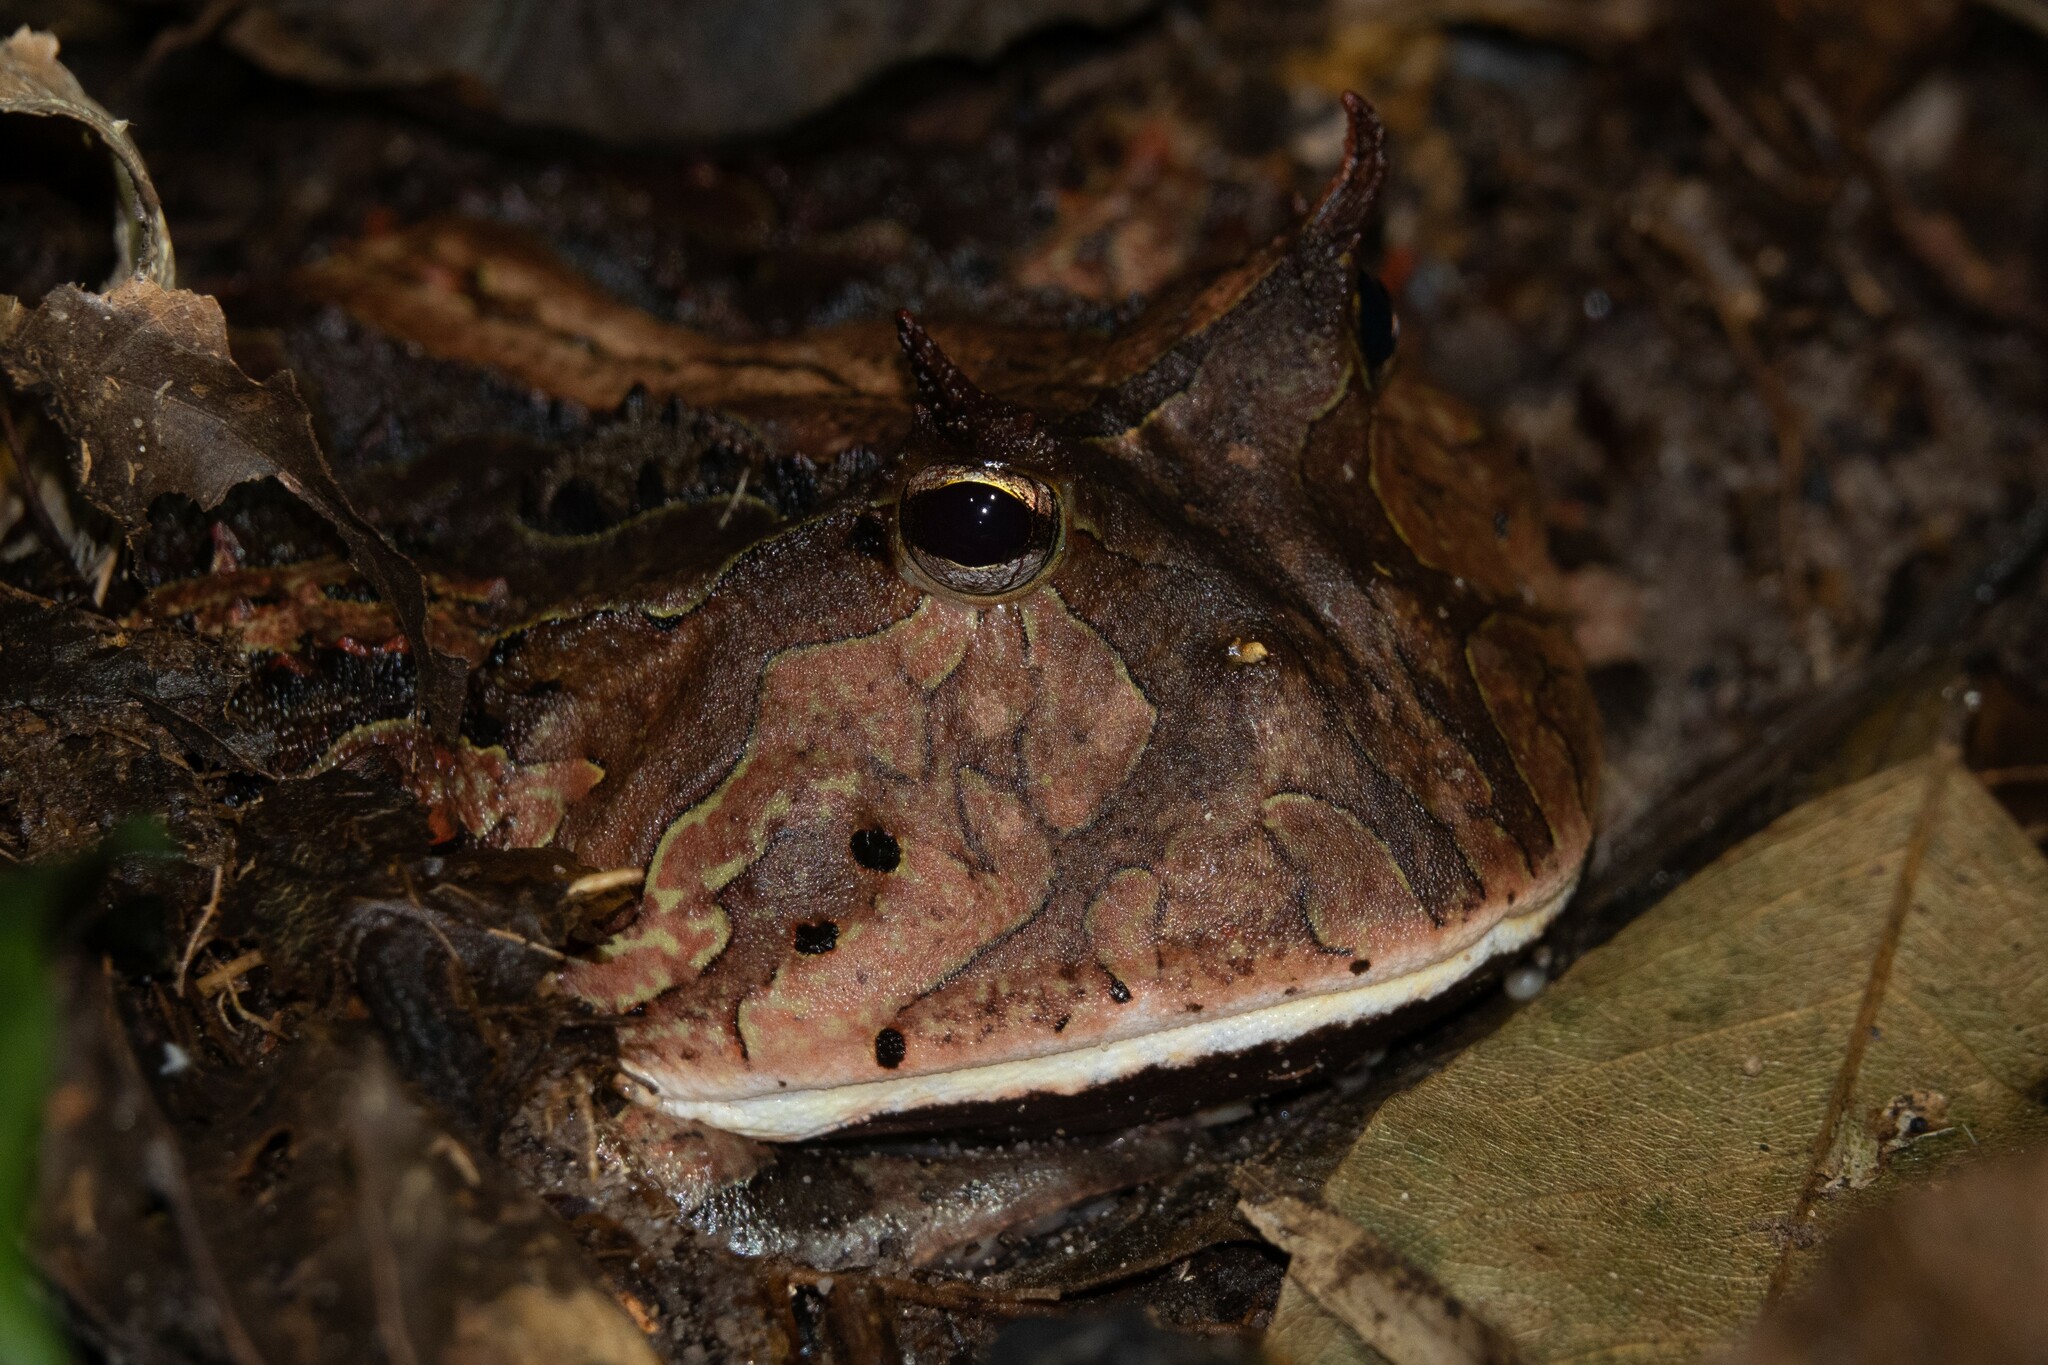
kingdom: Animalia
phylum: Chordata
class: Amphibia
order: Anura
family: Ceratophryidae
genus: Ceratophrys
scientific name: Ceratophrys cornuta
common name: Amazonian horned frog
